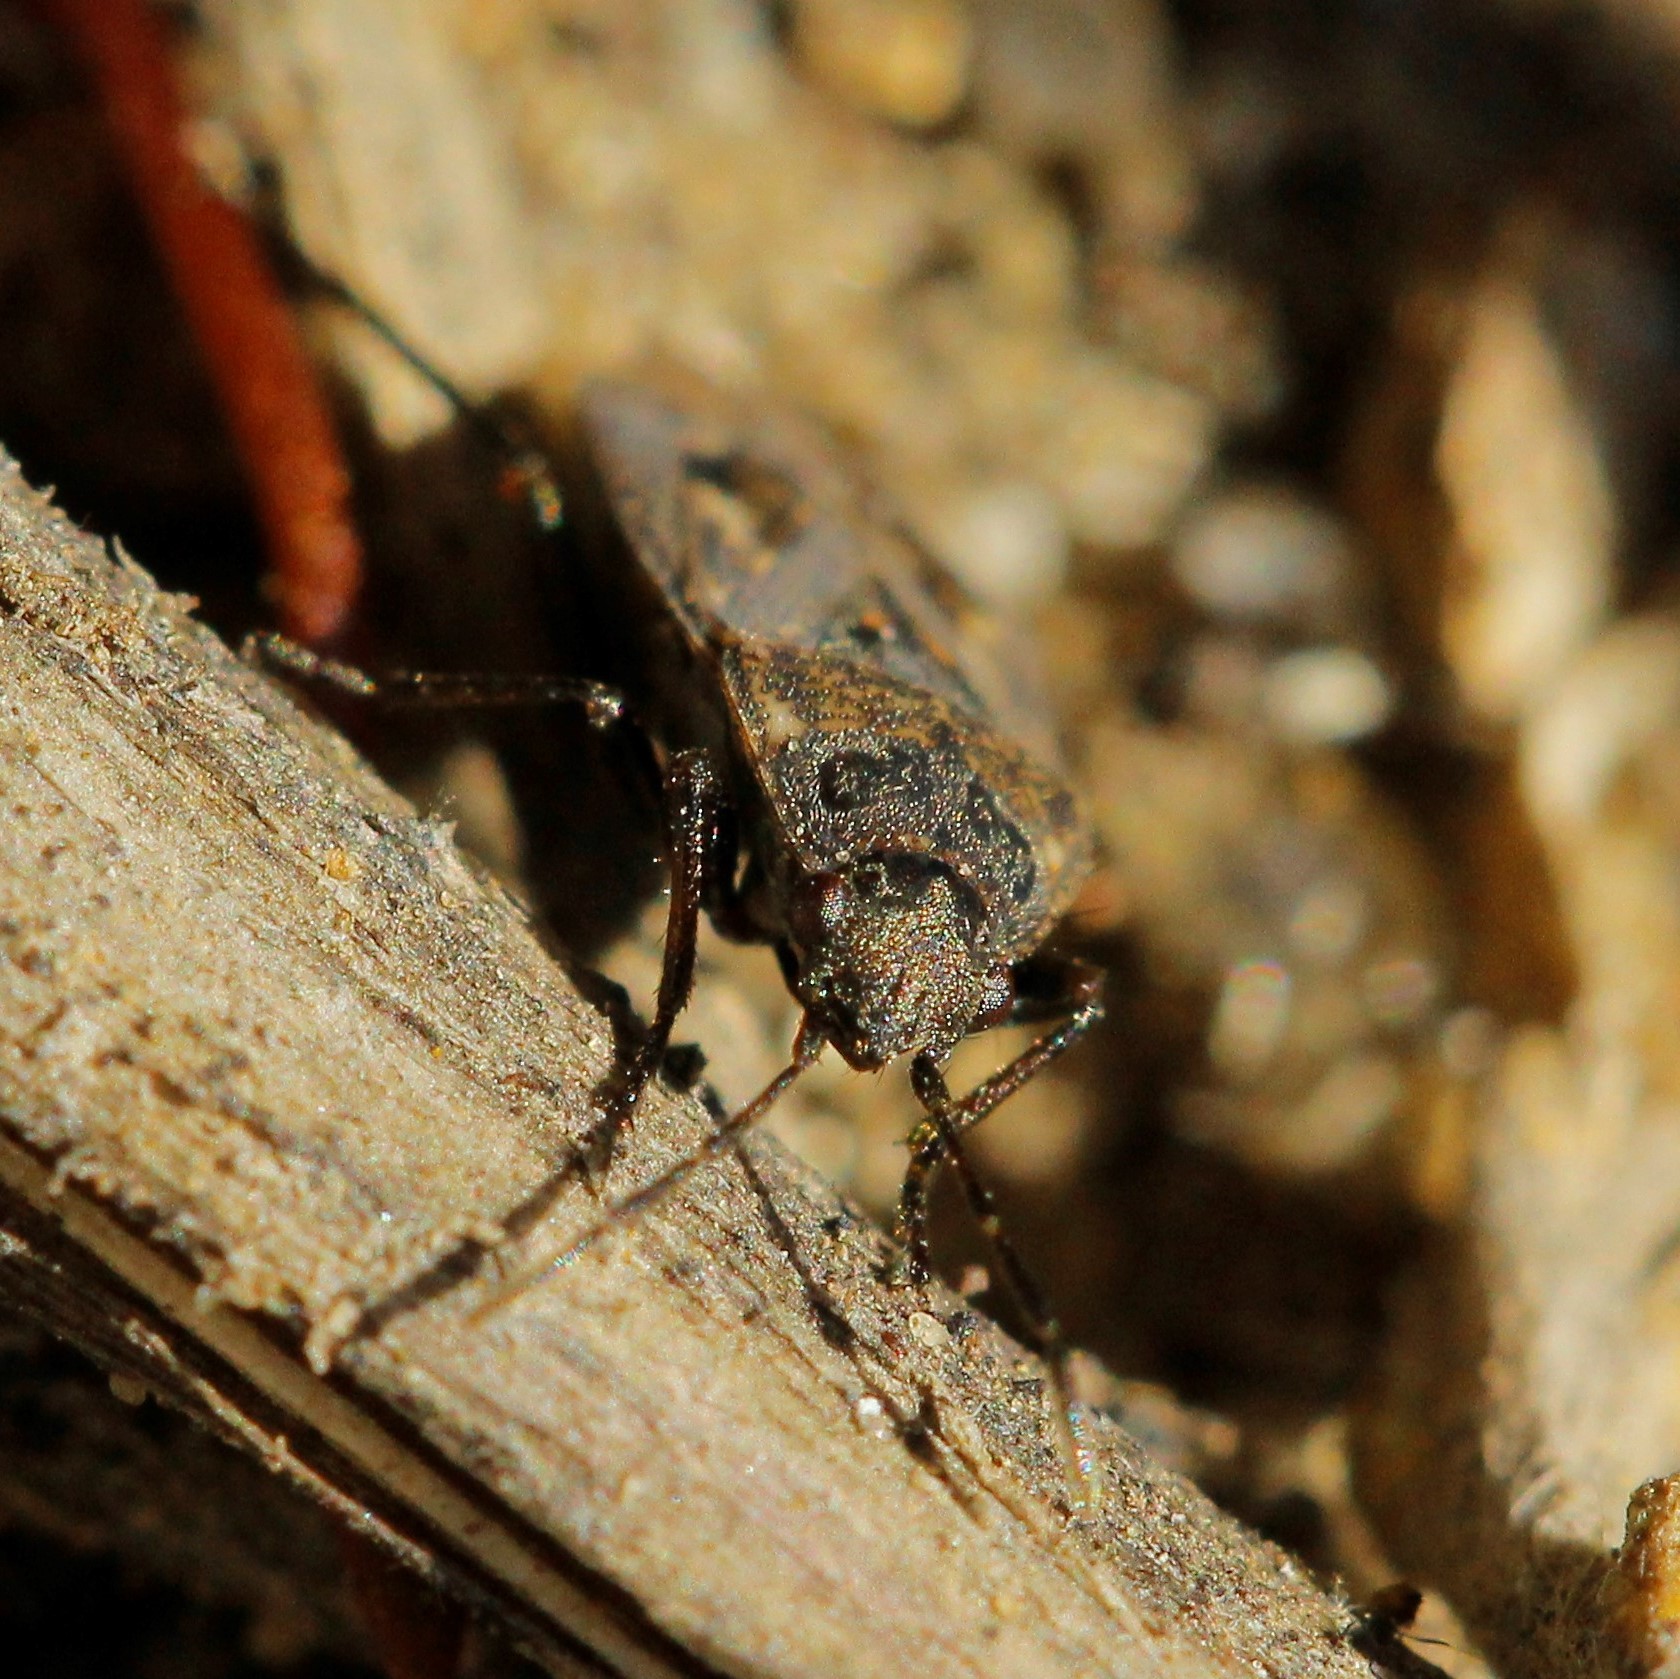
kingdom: Animalia
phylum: Arthropoda
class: Insecta
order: Hemiptera
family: Rhyparochromidae
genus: Sphragisticus
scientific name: Sphragisticus nebulosus
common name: Dirt-colored seed bug
